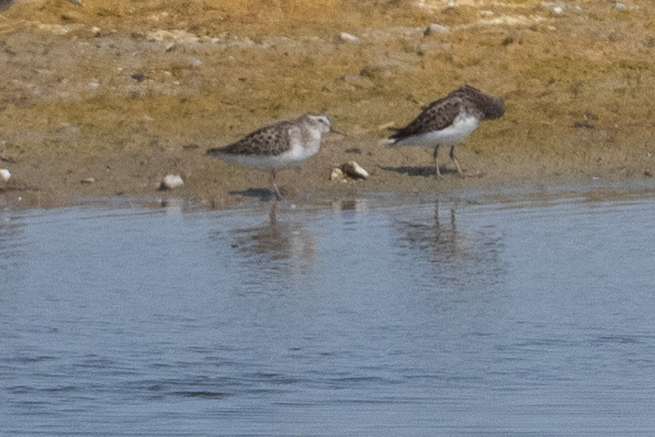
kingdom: Animalia
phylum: Chordata
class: Aves
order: Charadriiformes
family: Scolopacidae
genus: Calidris
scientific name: Calidris minutilla
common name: Least sandpiper
